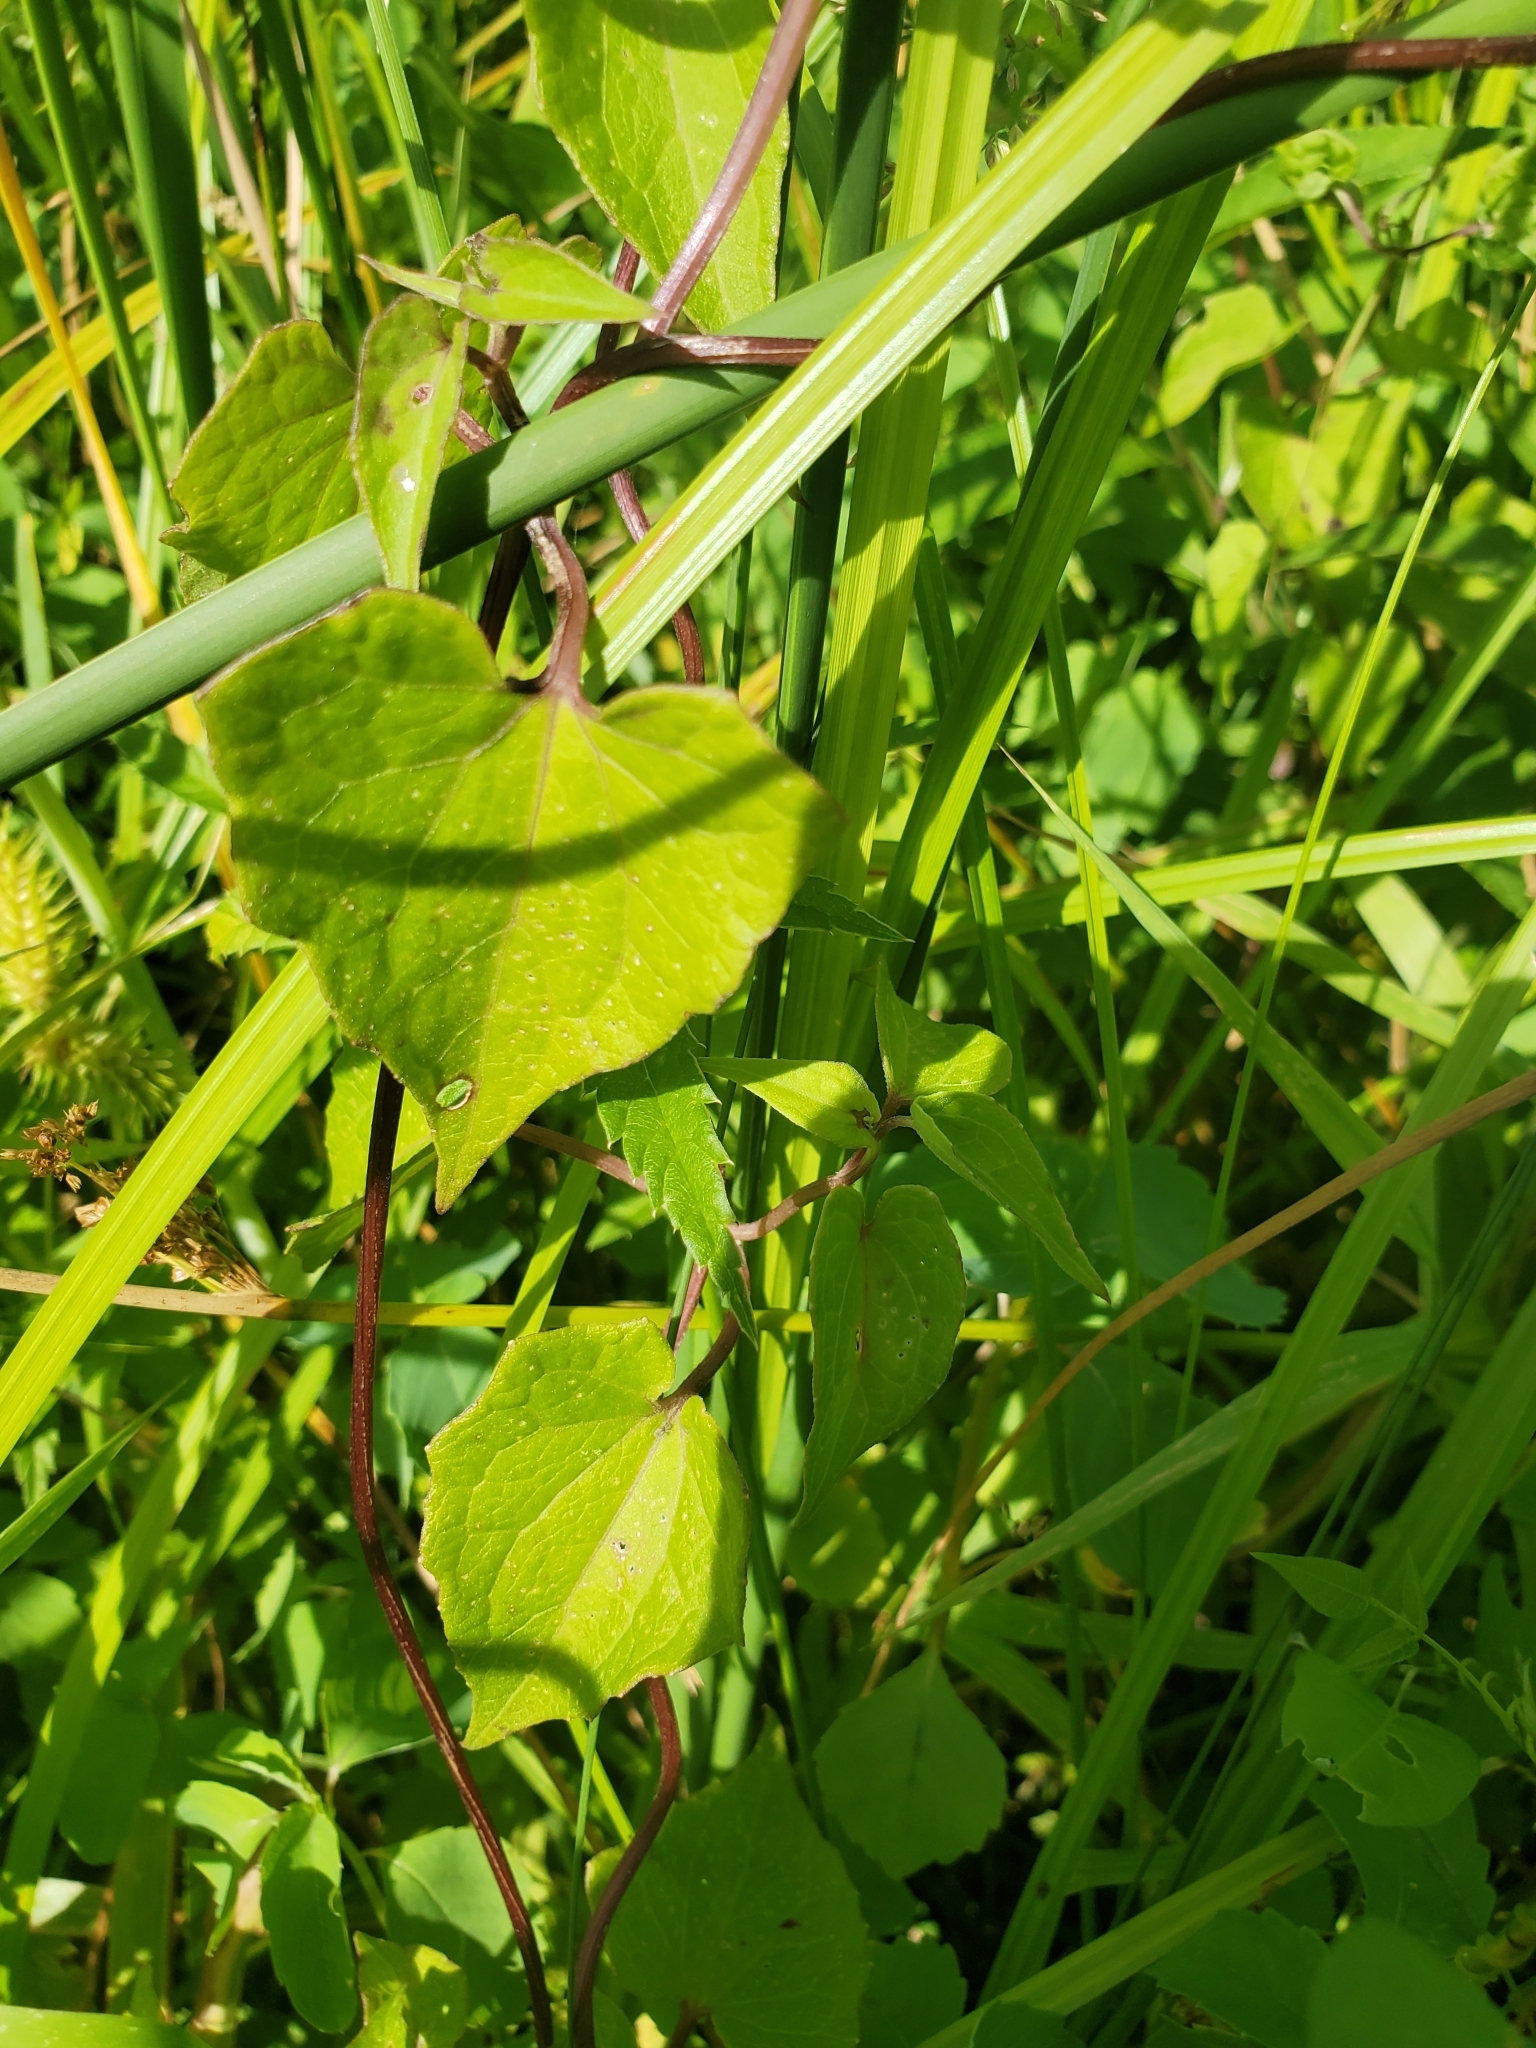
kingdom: Plantae
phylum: Tracheophyta
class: Magnoliopsida
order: Asterales
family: Asteraceae
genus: Mikania
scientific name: Mikania scandens
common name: Climbing hempvine
